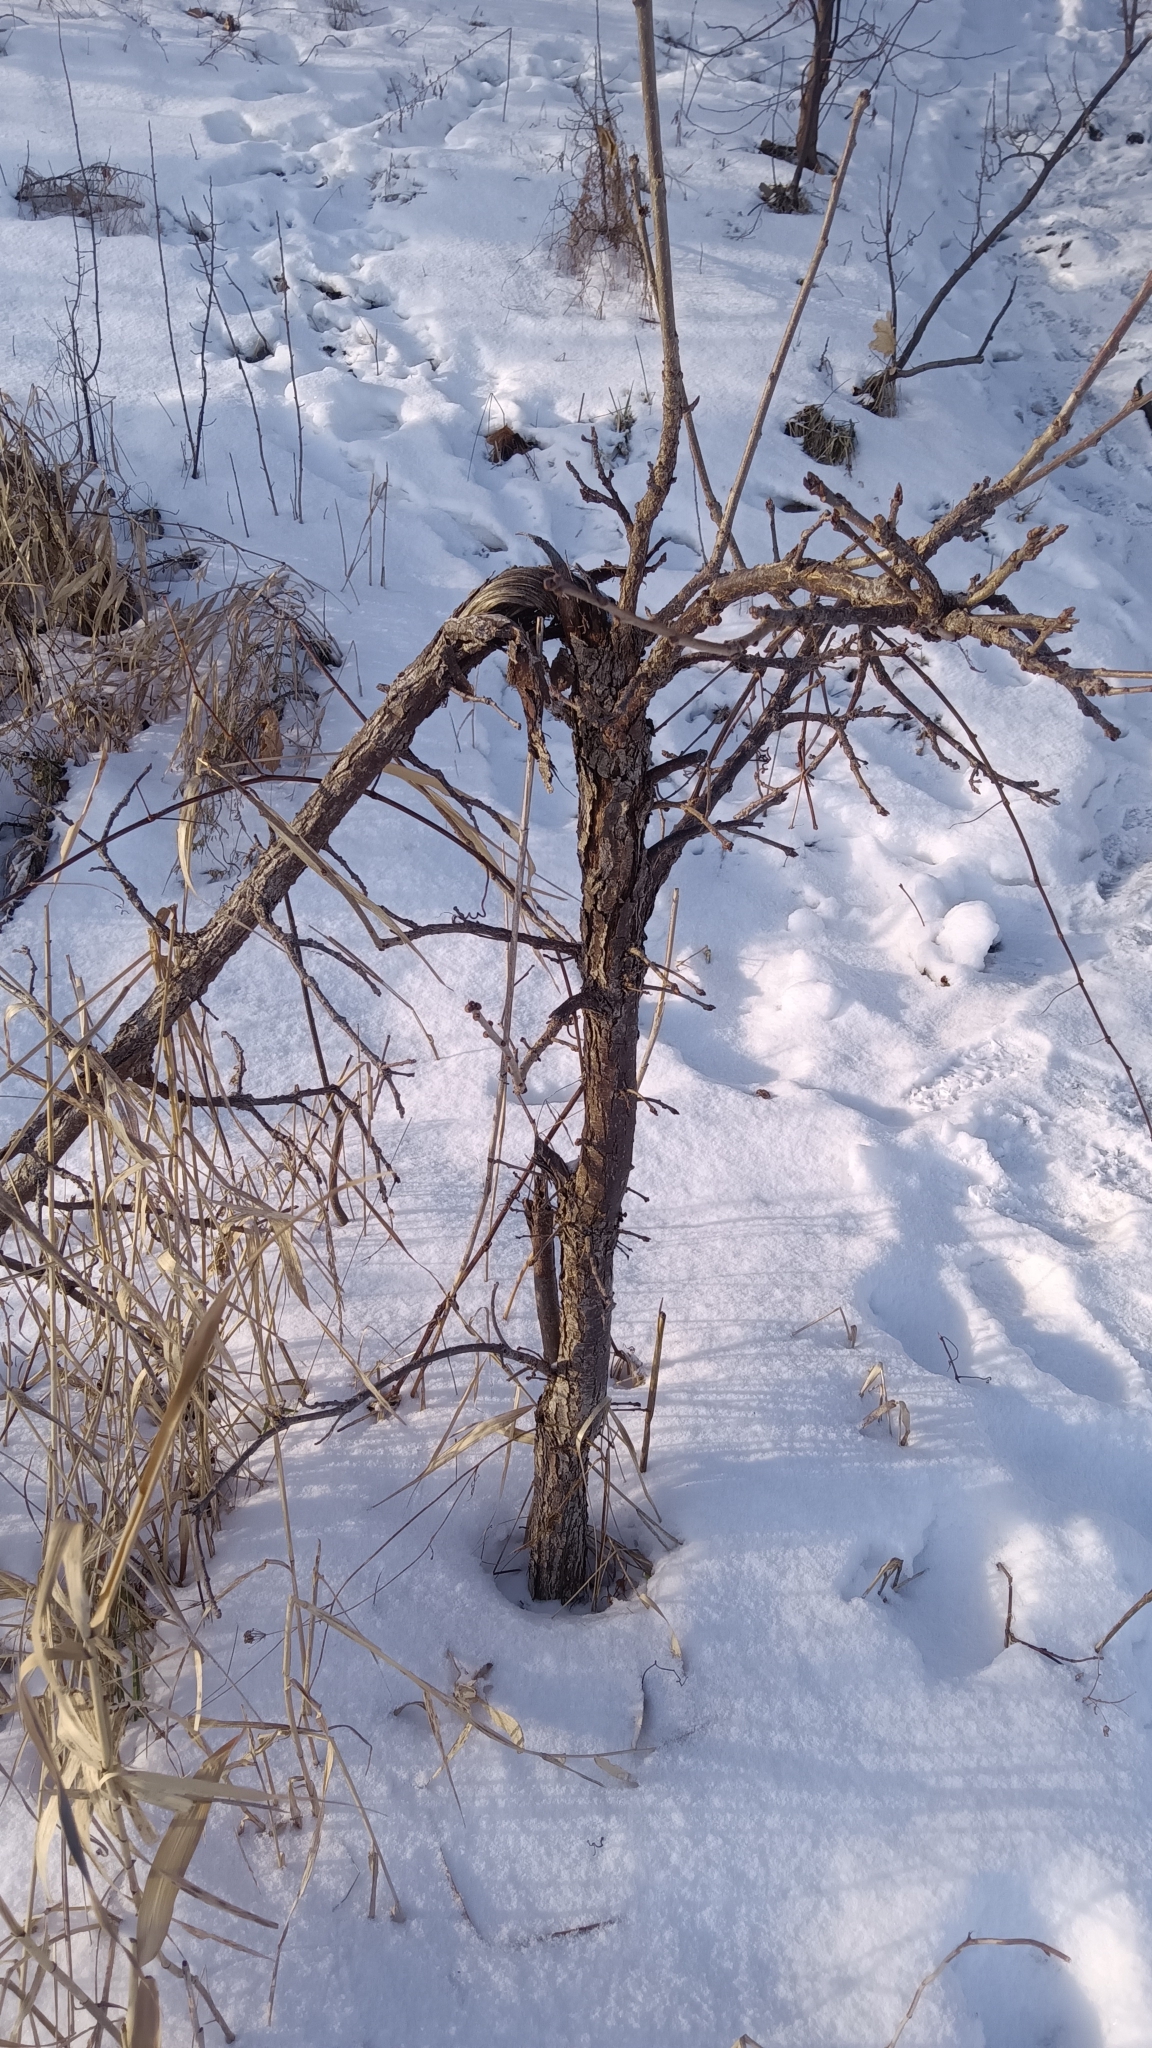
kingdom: Plantae
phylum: Tracheophyta
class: Magnoliopsida
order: Fagales
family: Fagaceae
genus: Quercus
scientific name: Quercus macrocarpa
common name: Bur oak
